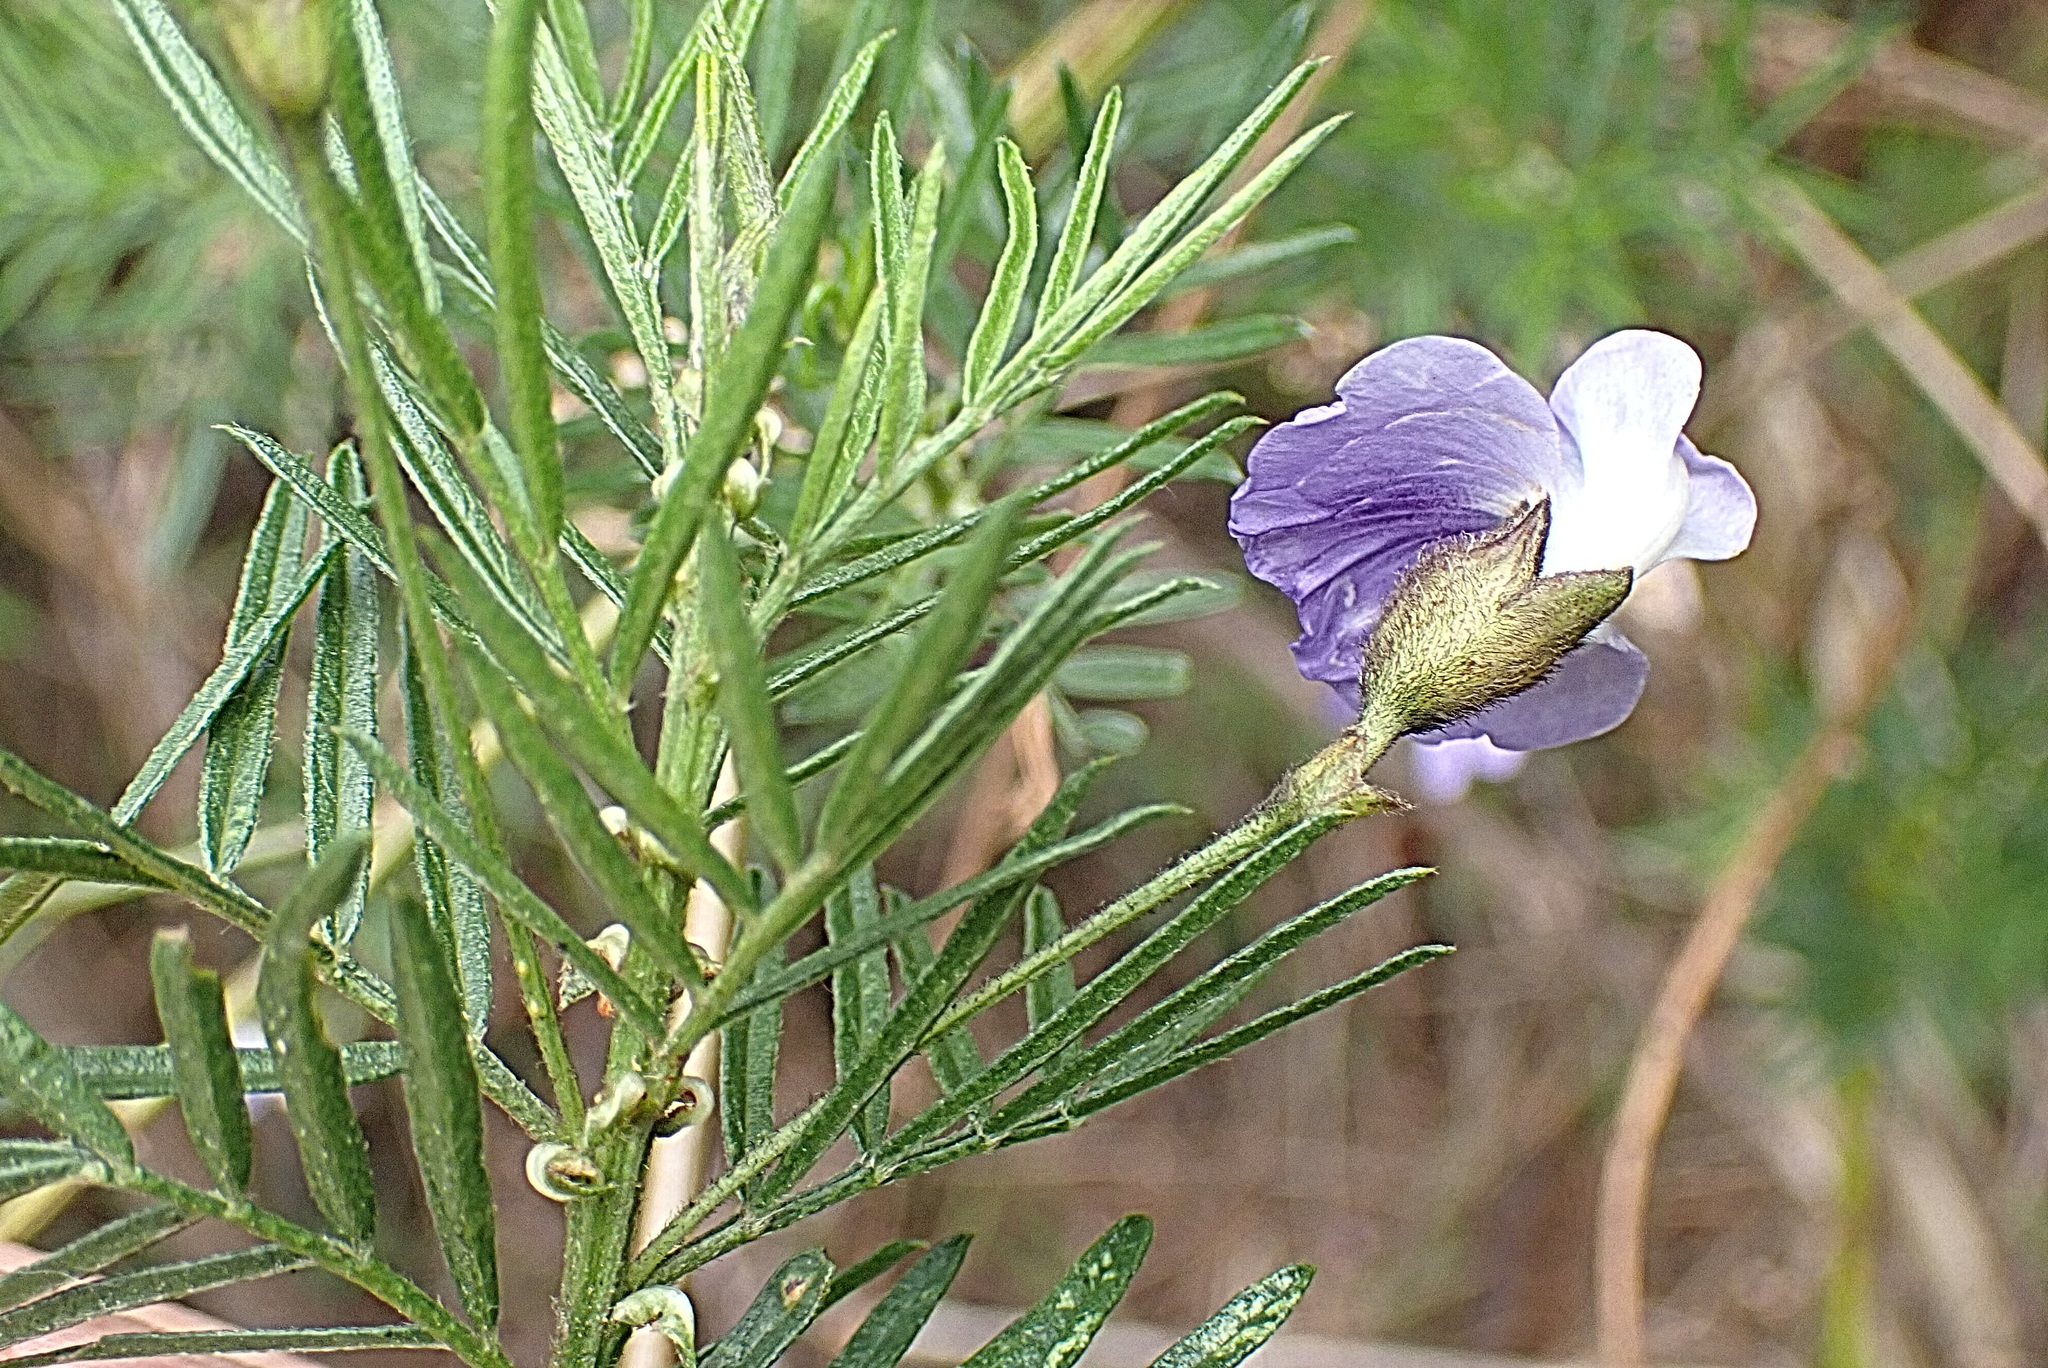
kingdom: Plantae
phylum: Tracheophyta
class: Magnoliopsida
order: Fabales
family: Fabaceae
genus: Psoralea
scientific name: Psoralea arborea
